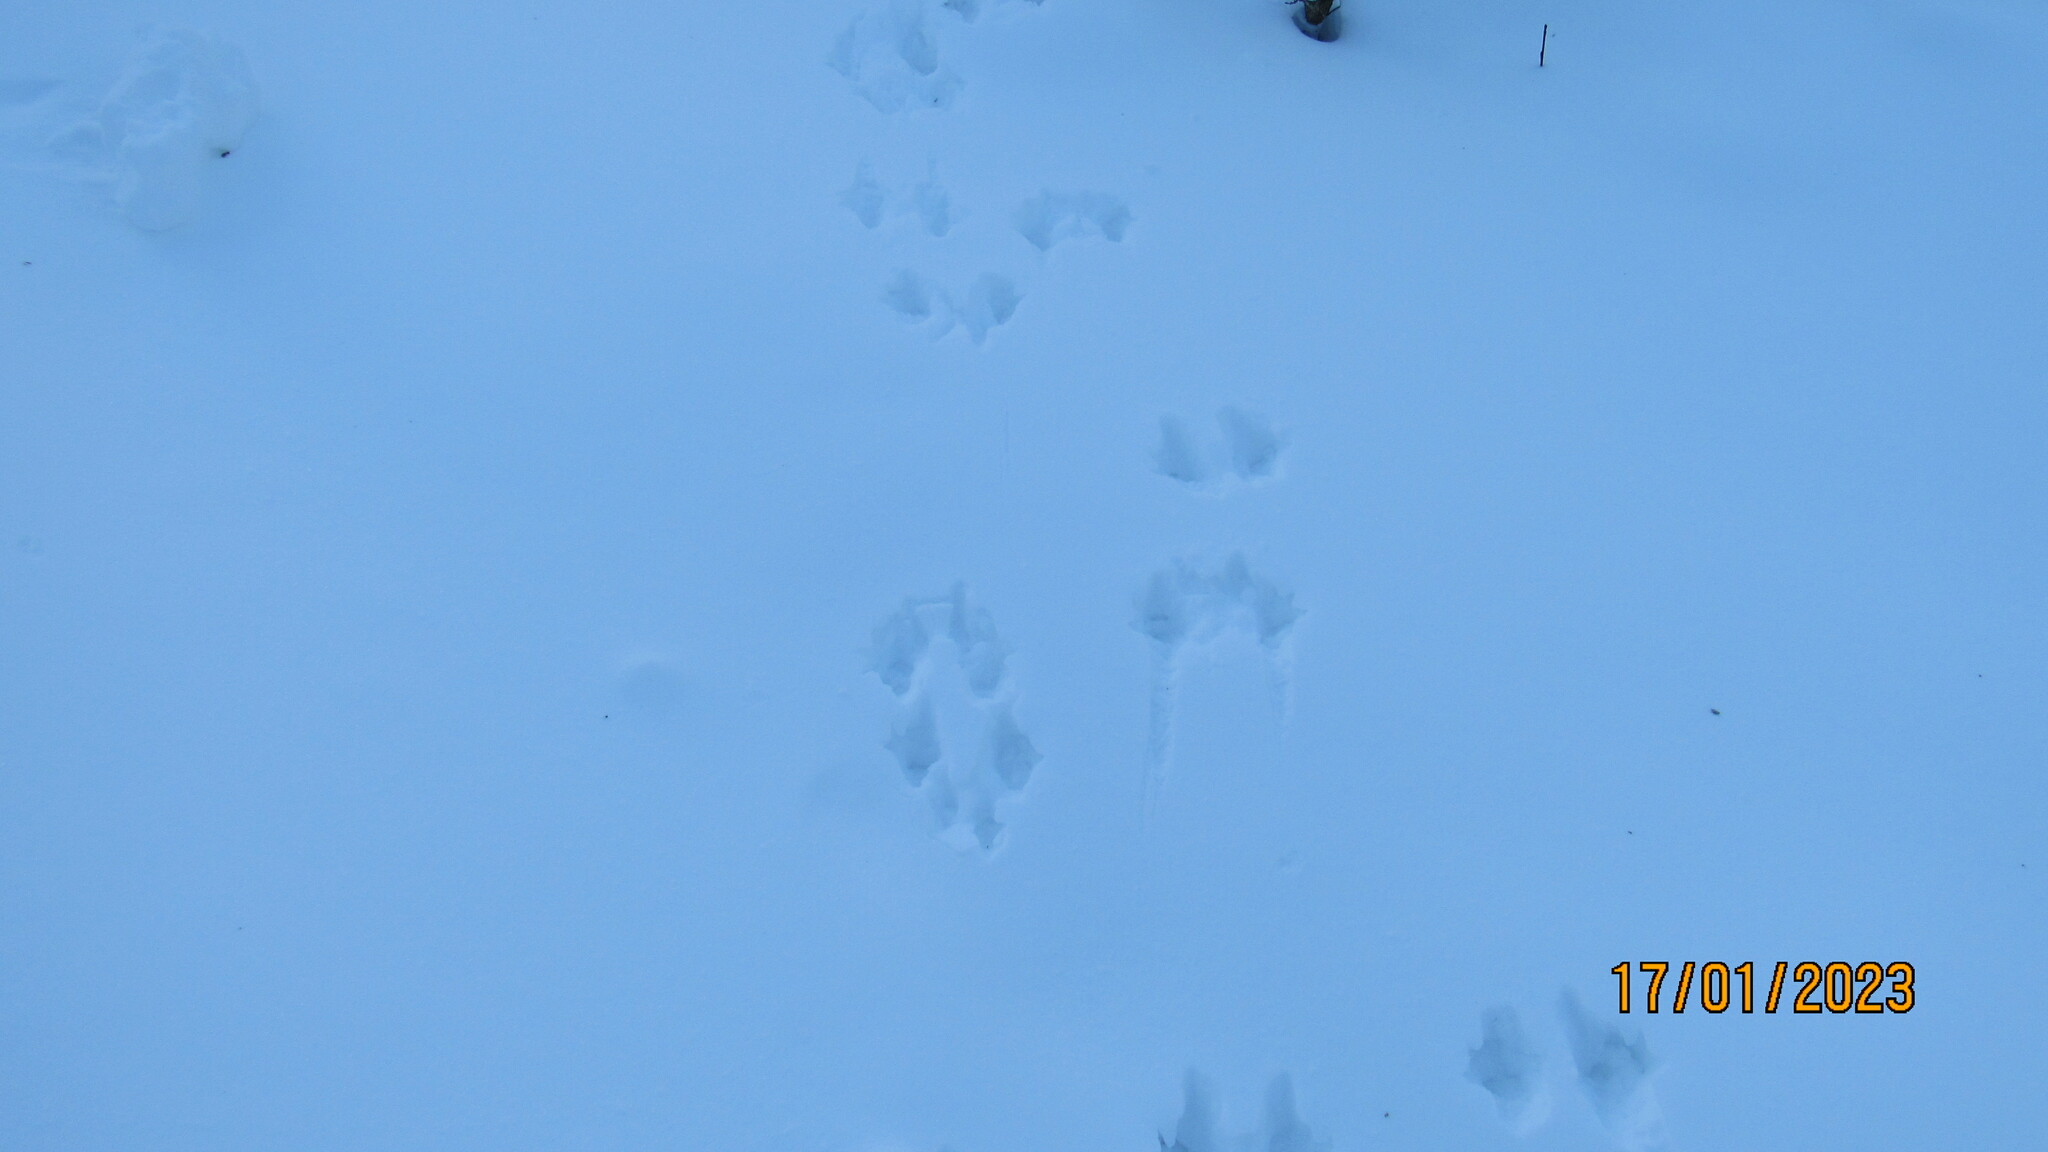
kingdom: Animalia
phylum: Chordata
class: Mammalia
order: Rodentia
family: Sciuridae
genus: Sciurus
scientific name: Sciurus vulgaris
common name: Eurasian red squirrel
